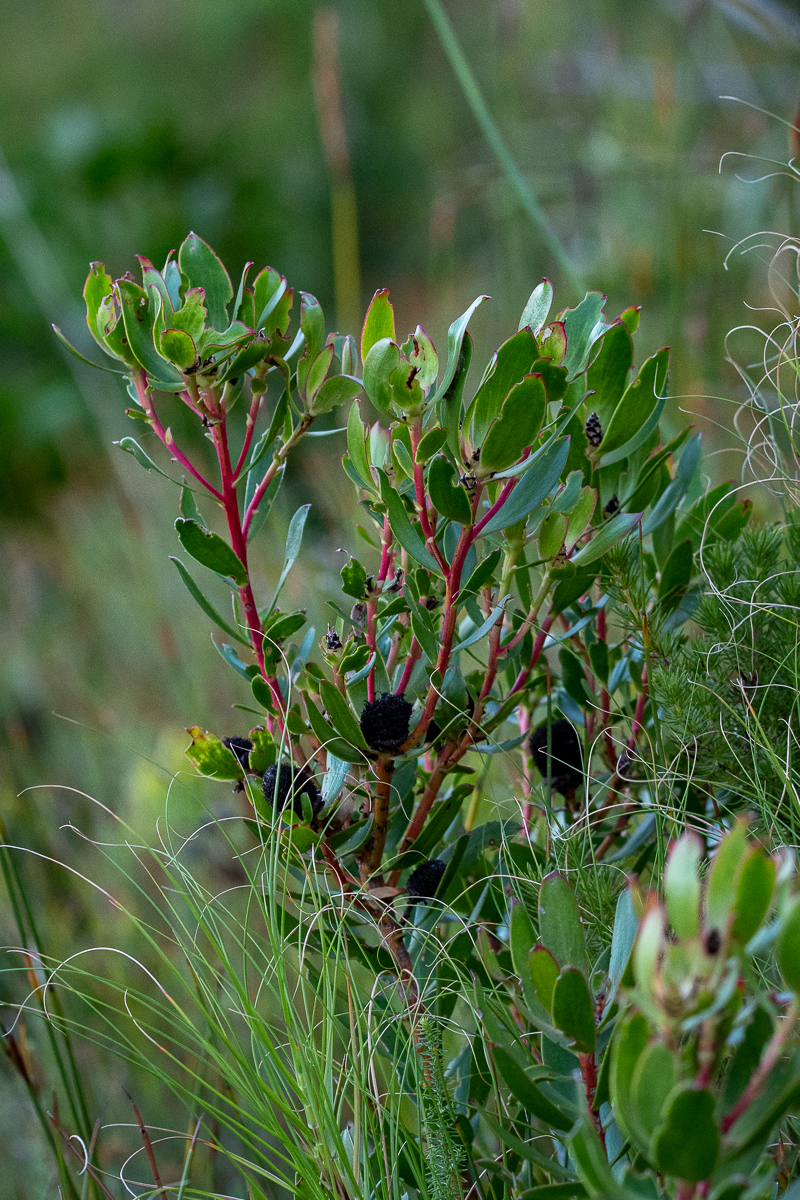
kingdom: Plantae
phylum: Tracheophyta
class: Magnoliopsida
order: Proteales
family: Proteaceae
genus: Leucadendron
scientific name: Leucadendron spissifolium
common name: Spear-leaf conebush
